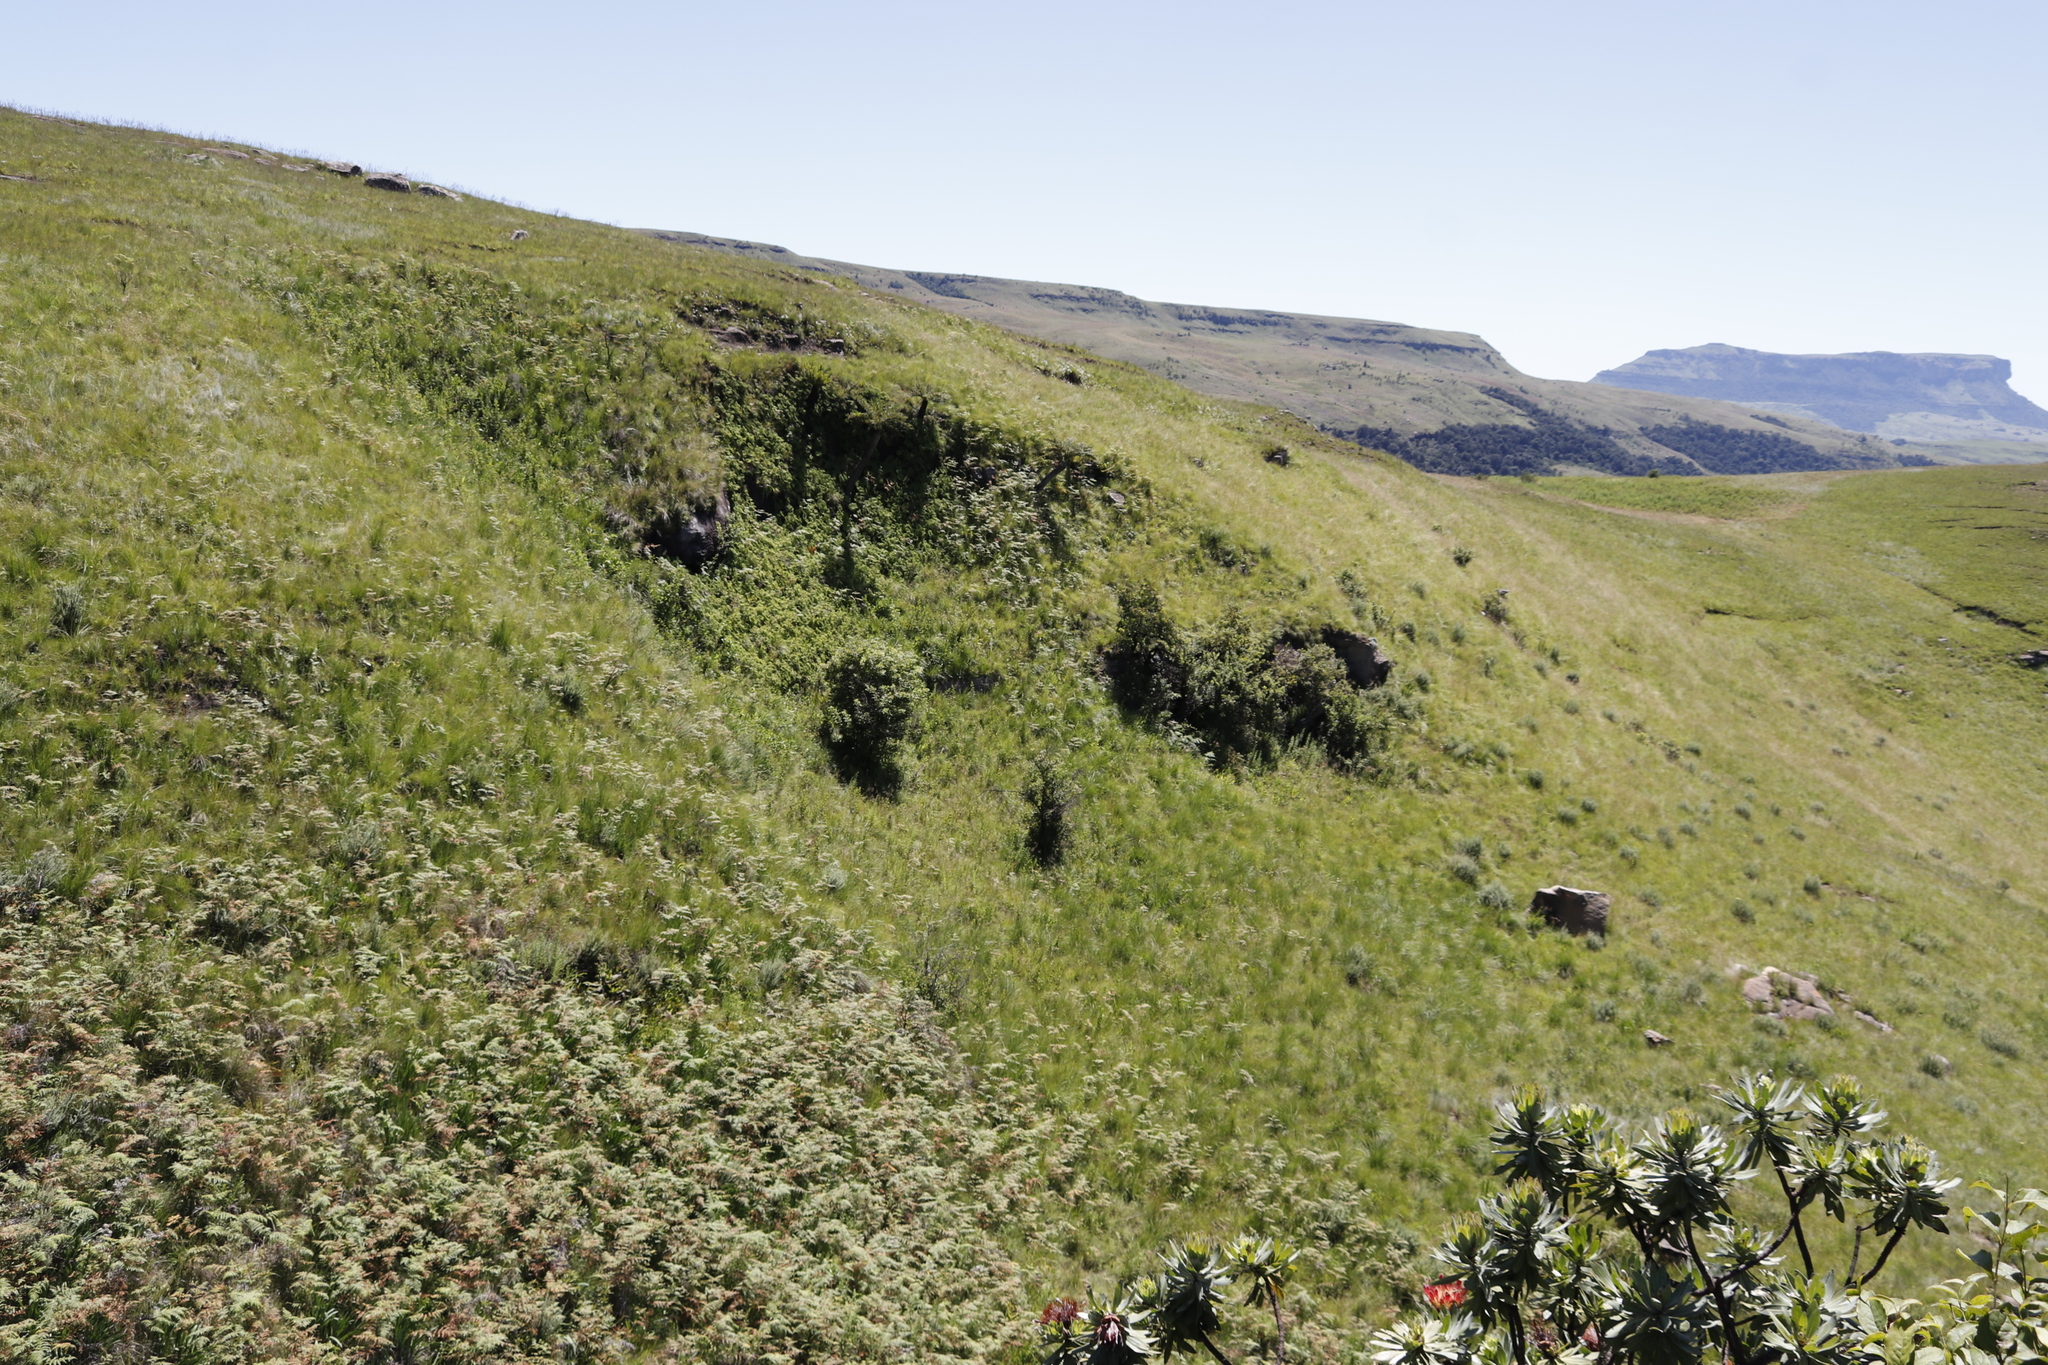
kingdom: Plantae
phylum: Tracheophyta
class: Polypodiopsida
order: Cyatheales
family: Cyatheaceae
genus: Alsophila
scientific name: Alsophila dregei
